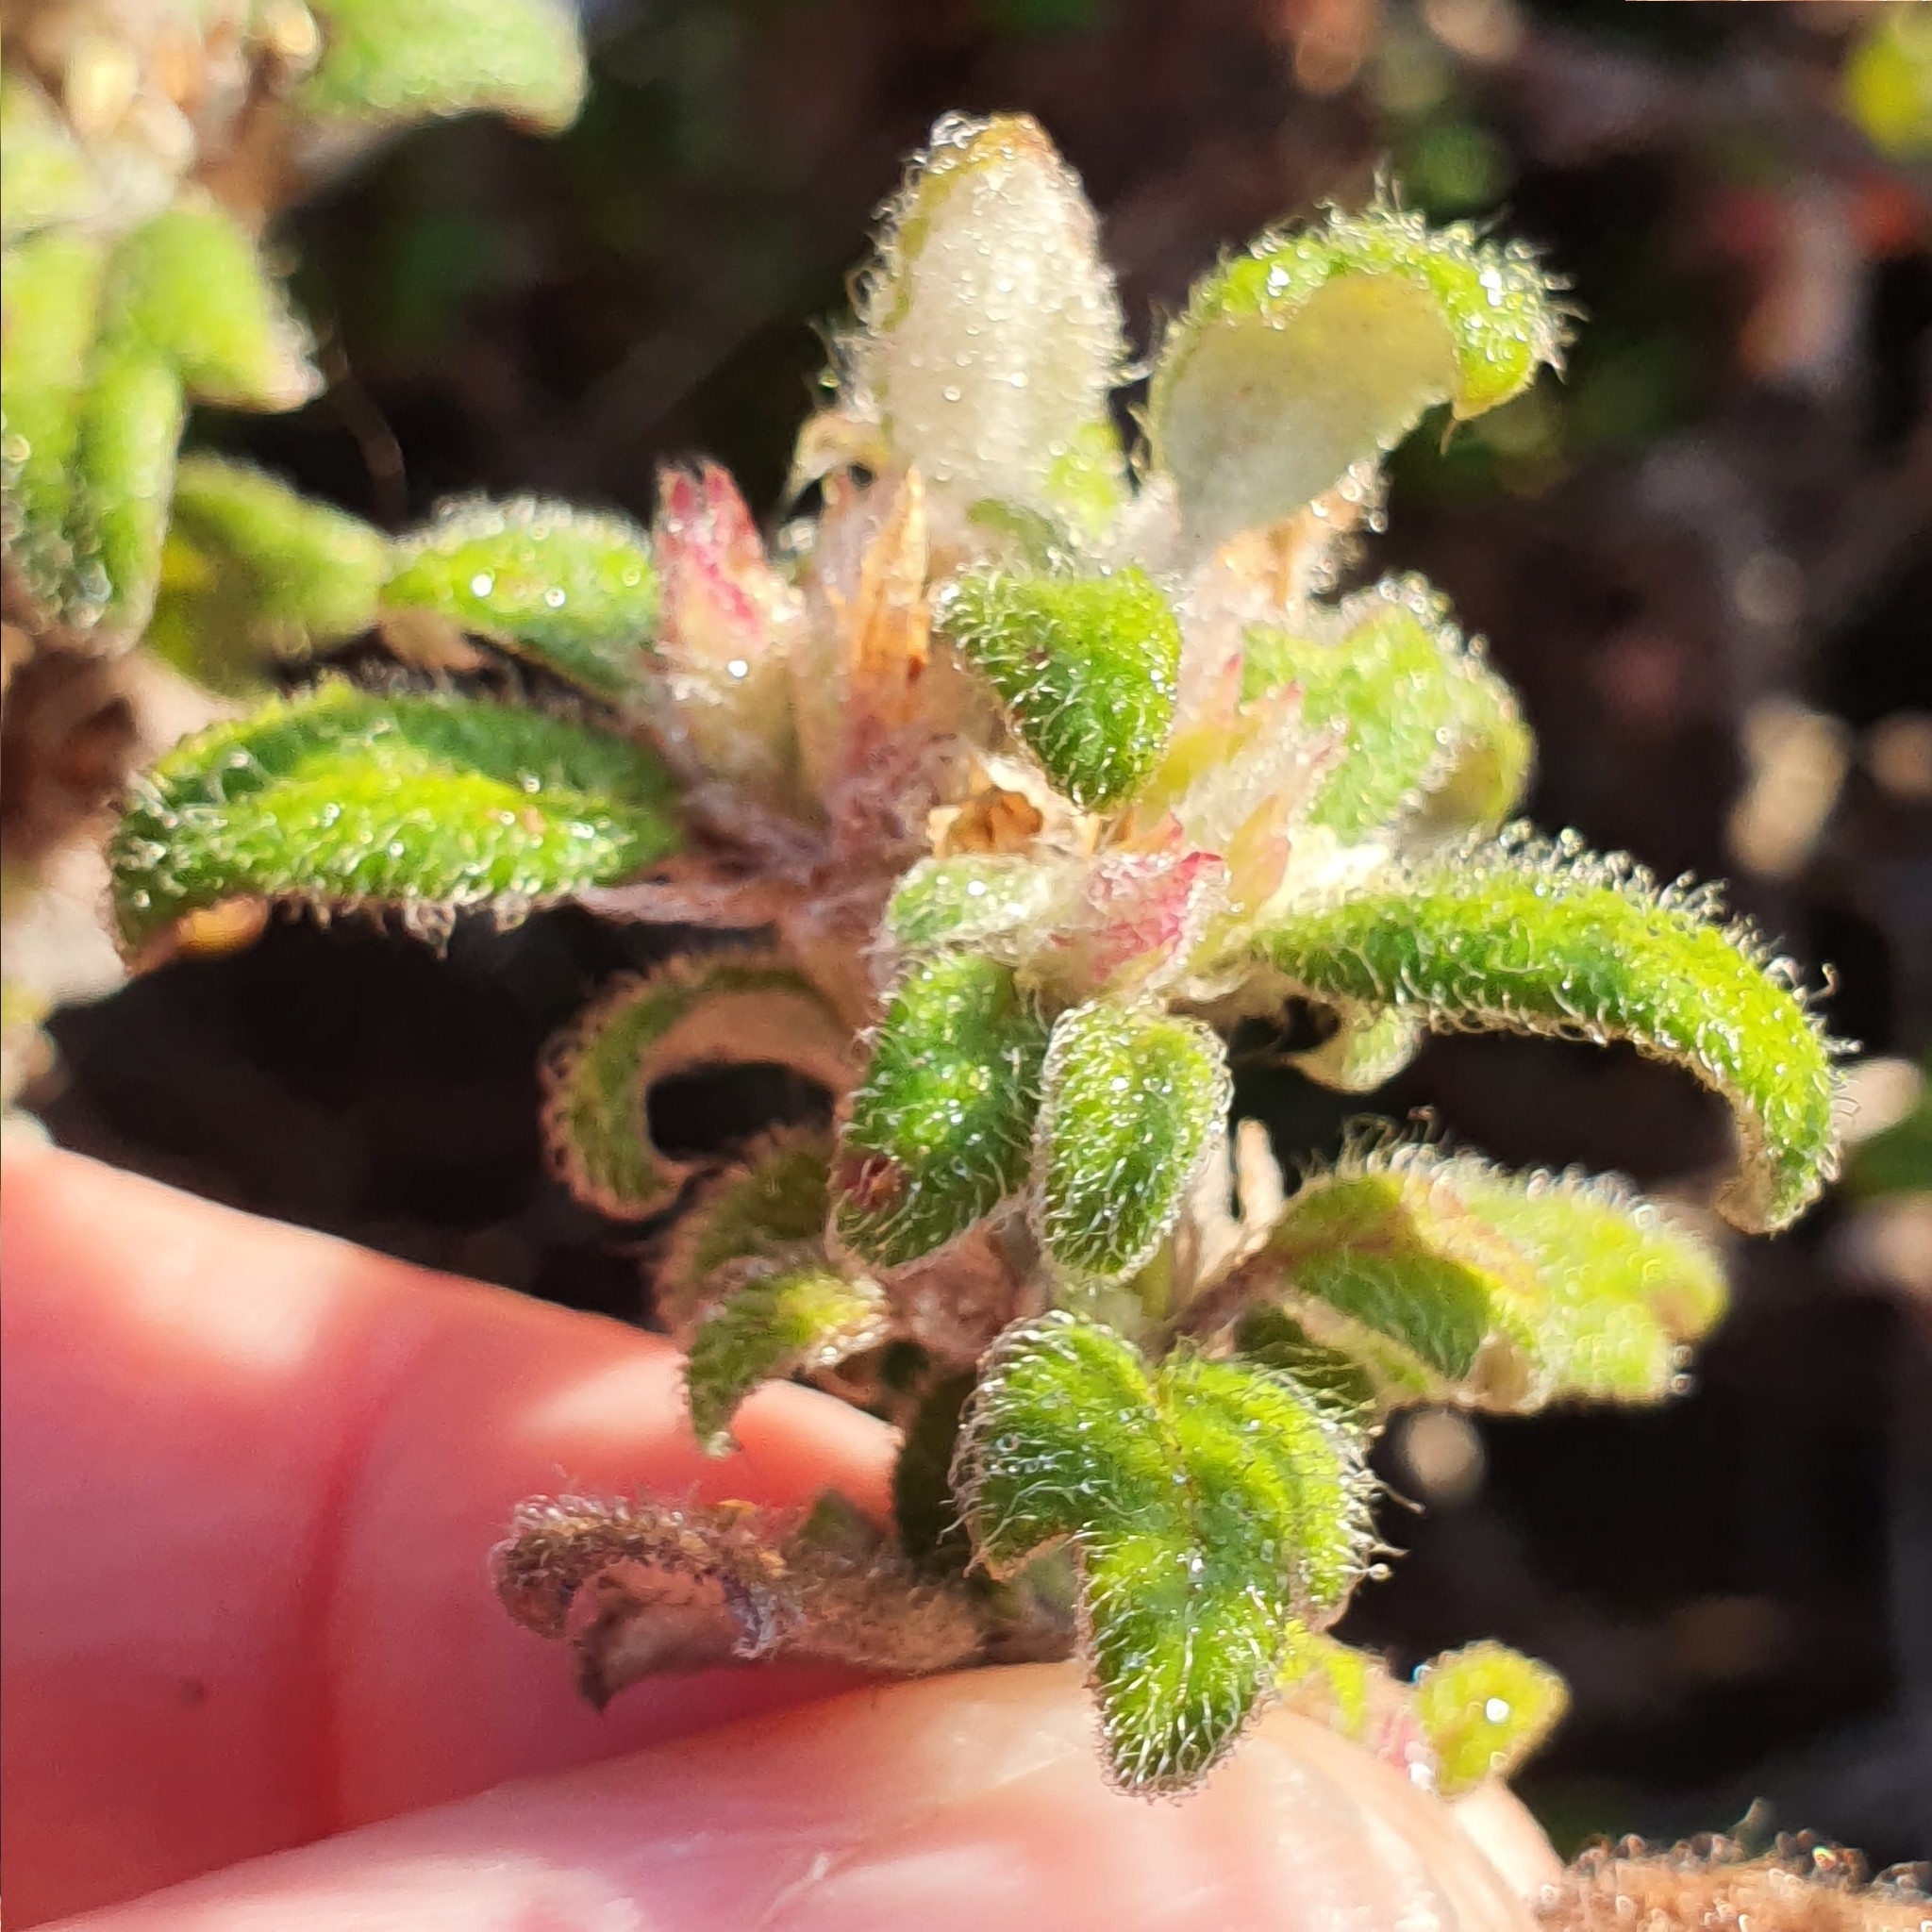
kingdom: Plantae
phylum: Tracheophyta
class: Magnoliopsida
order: Apiales
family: Apiaceae
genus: Xanthosia
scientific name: Xanthosia pilosa
